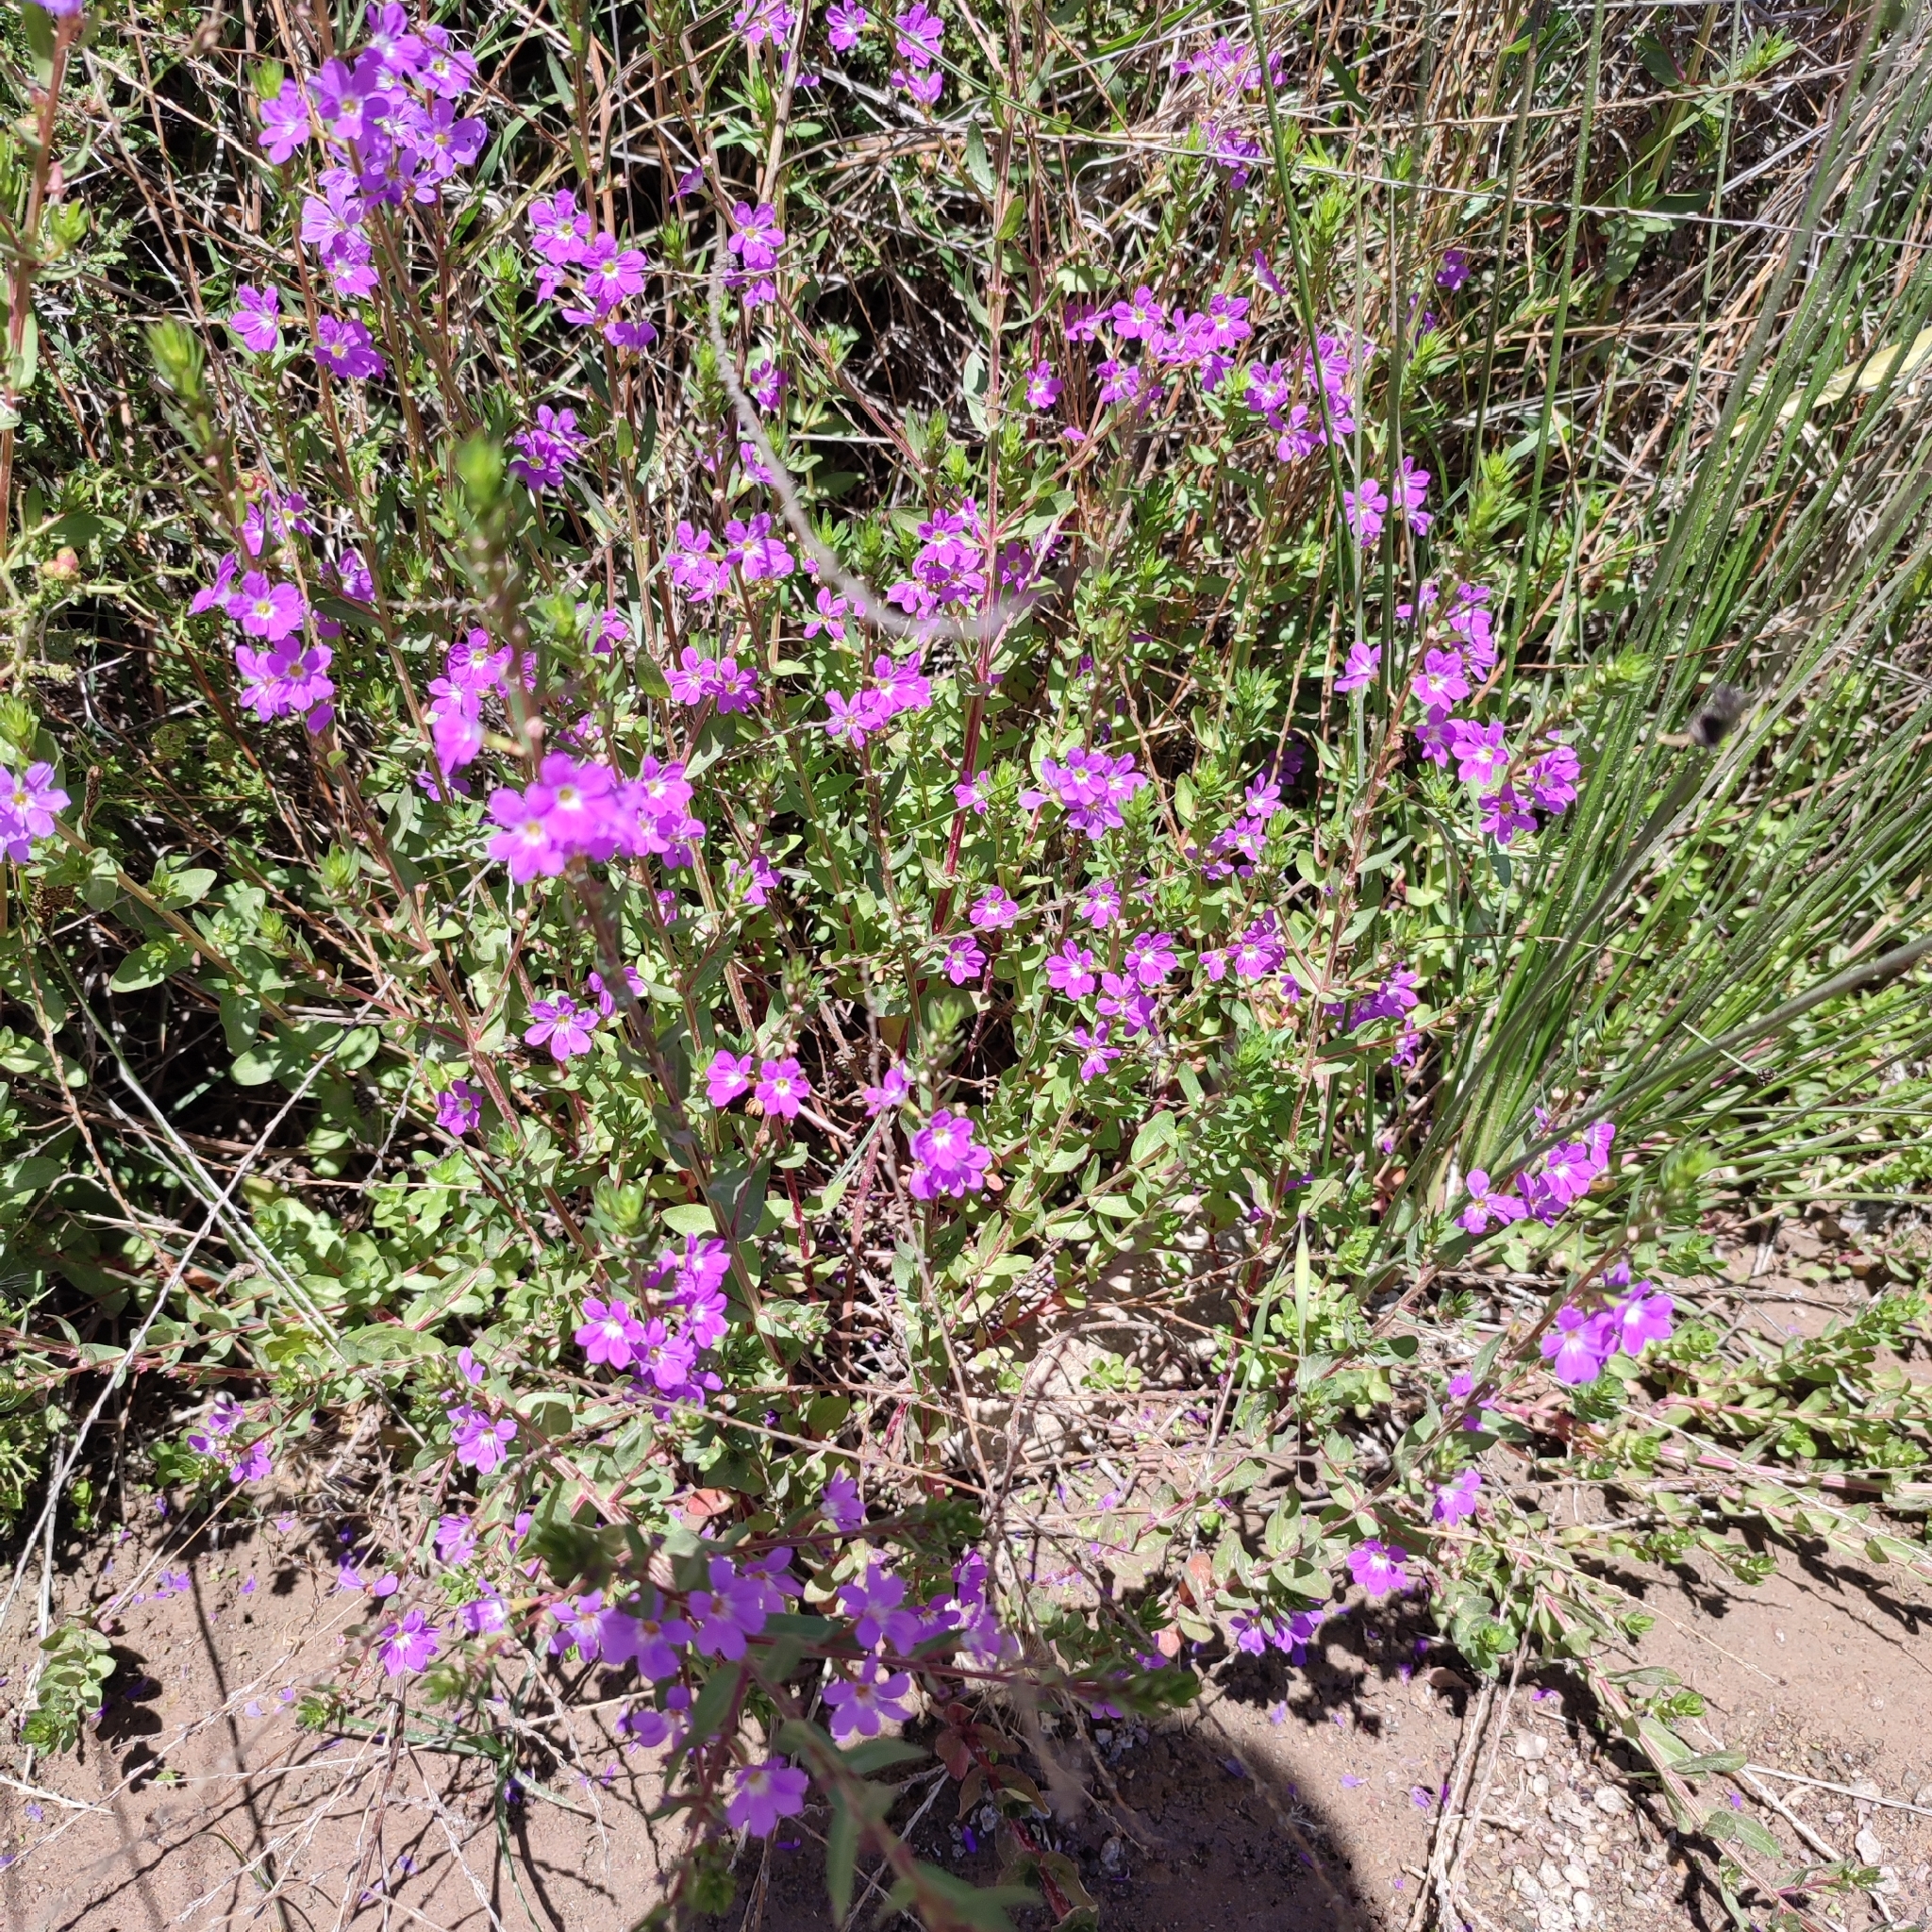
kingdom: Plantae
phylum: Tracheophyta
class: Magnoliopsida
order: Myrtales
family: Lythraceae
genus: Lythrum
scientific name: Lythrum junceum
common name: False grass-poly
